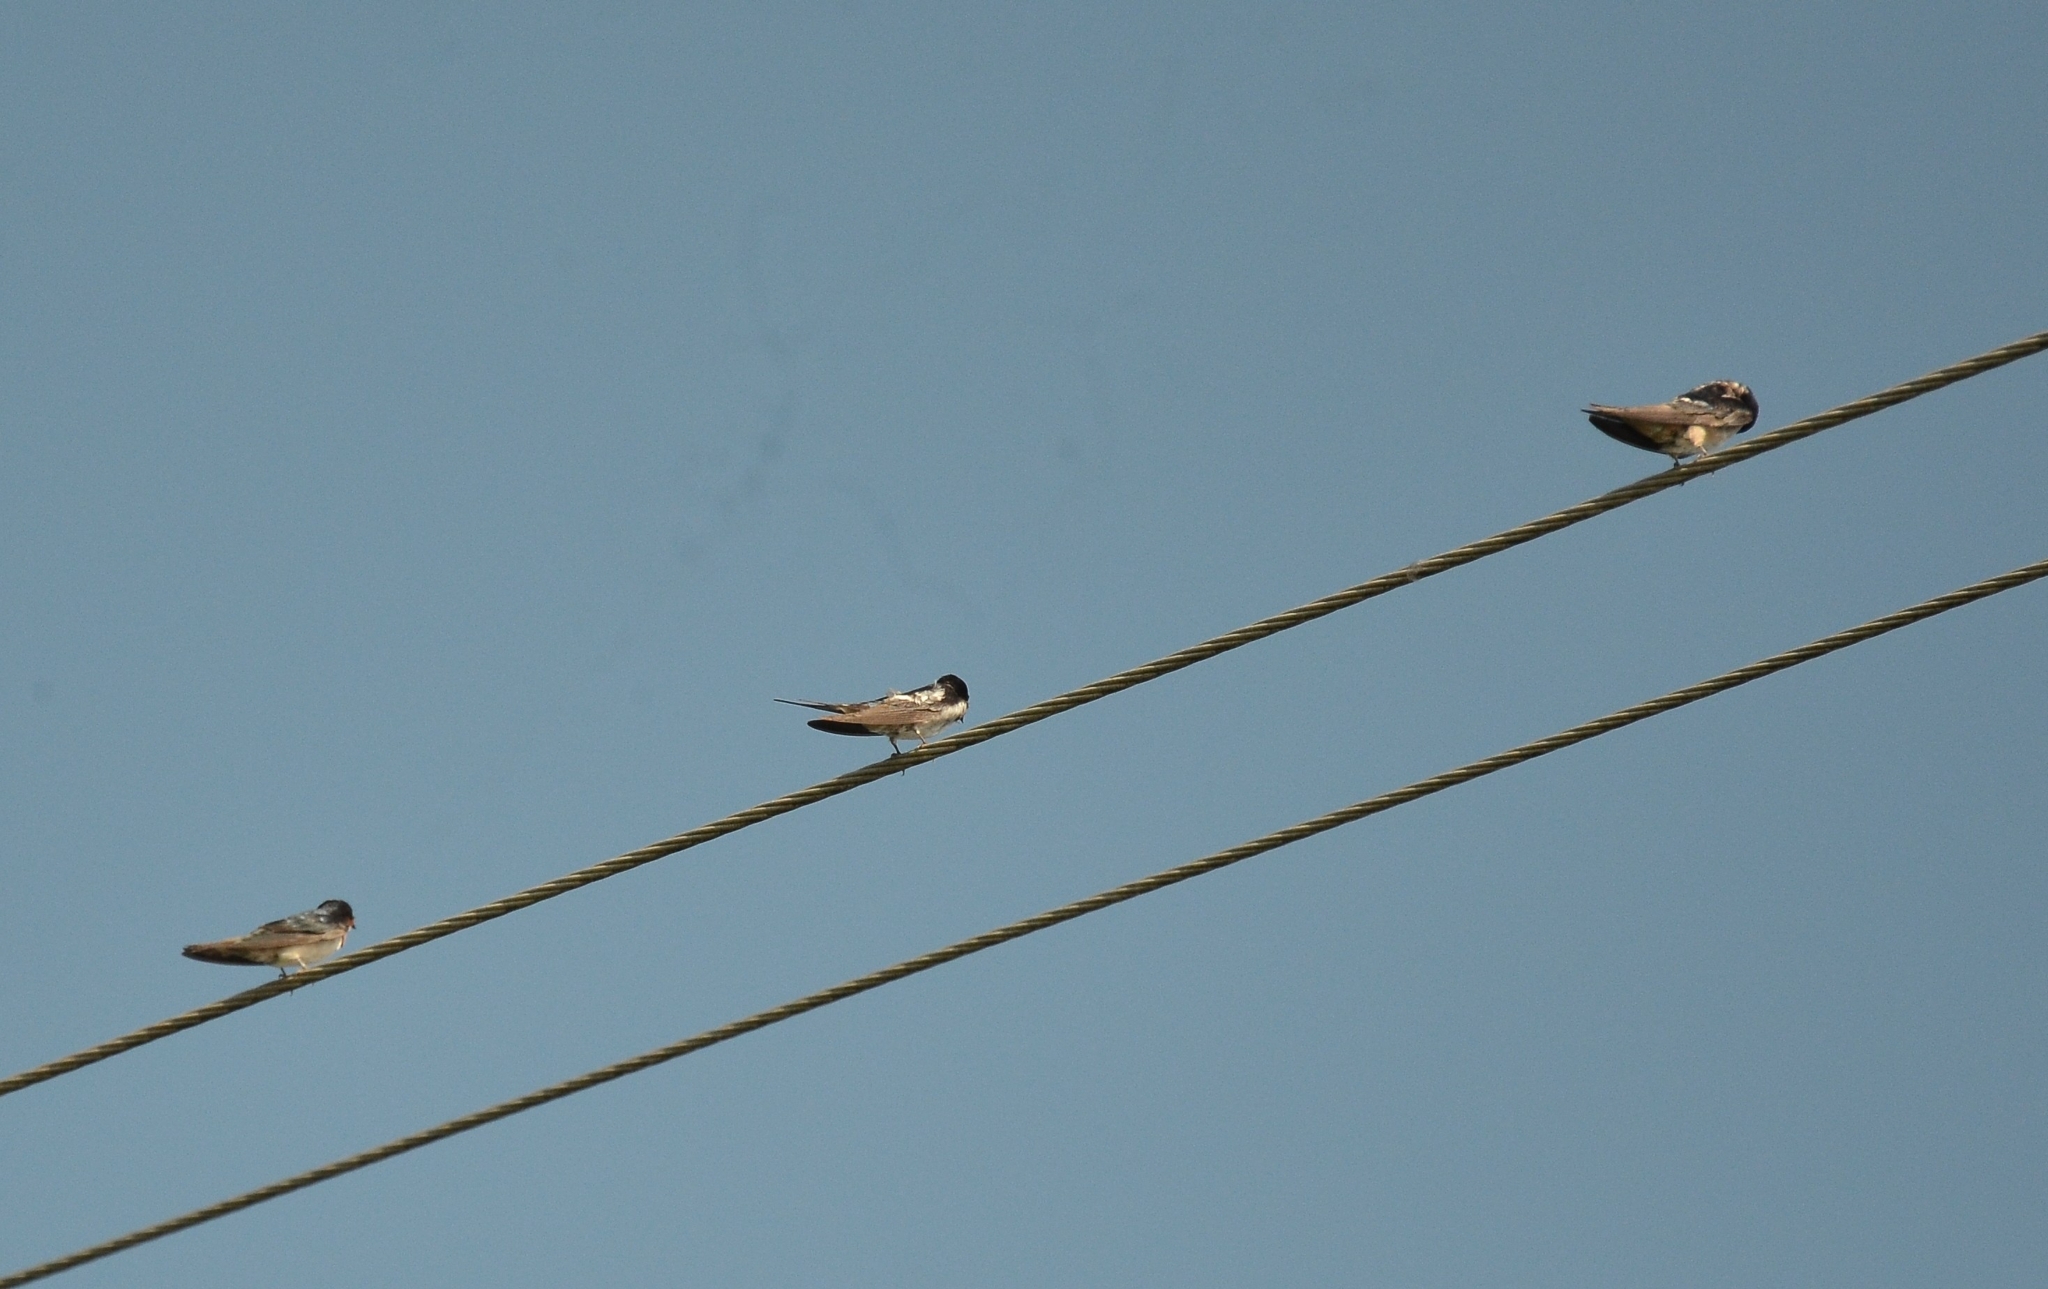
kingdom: Animalia
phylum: Chordata
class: Aves
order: Passeriformes
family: Hirundinidae
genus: Hirundo
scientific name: Hirundo rustica
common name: Barn swallow
